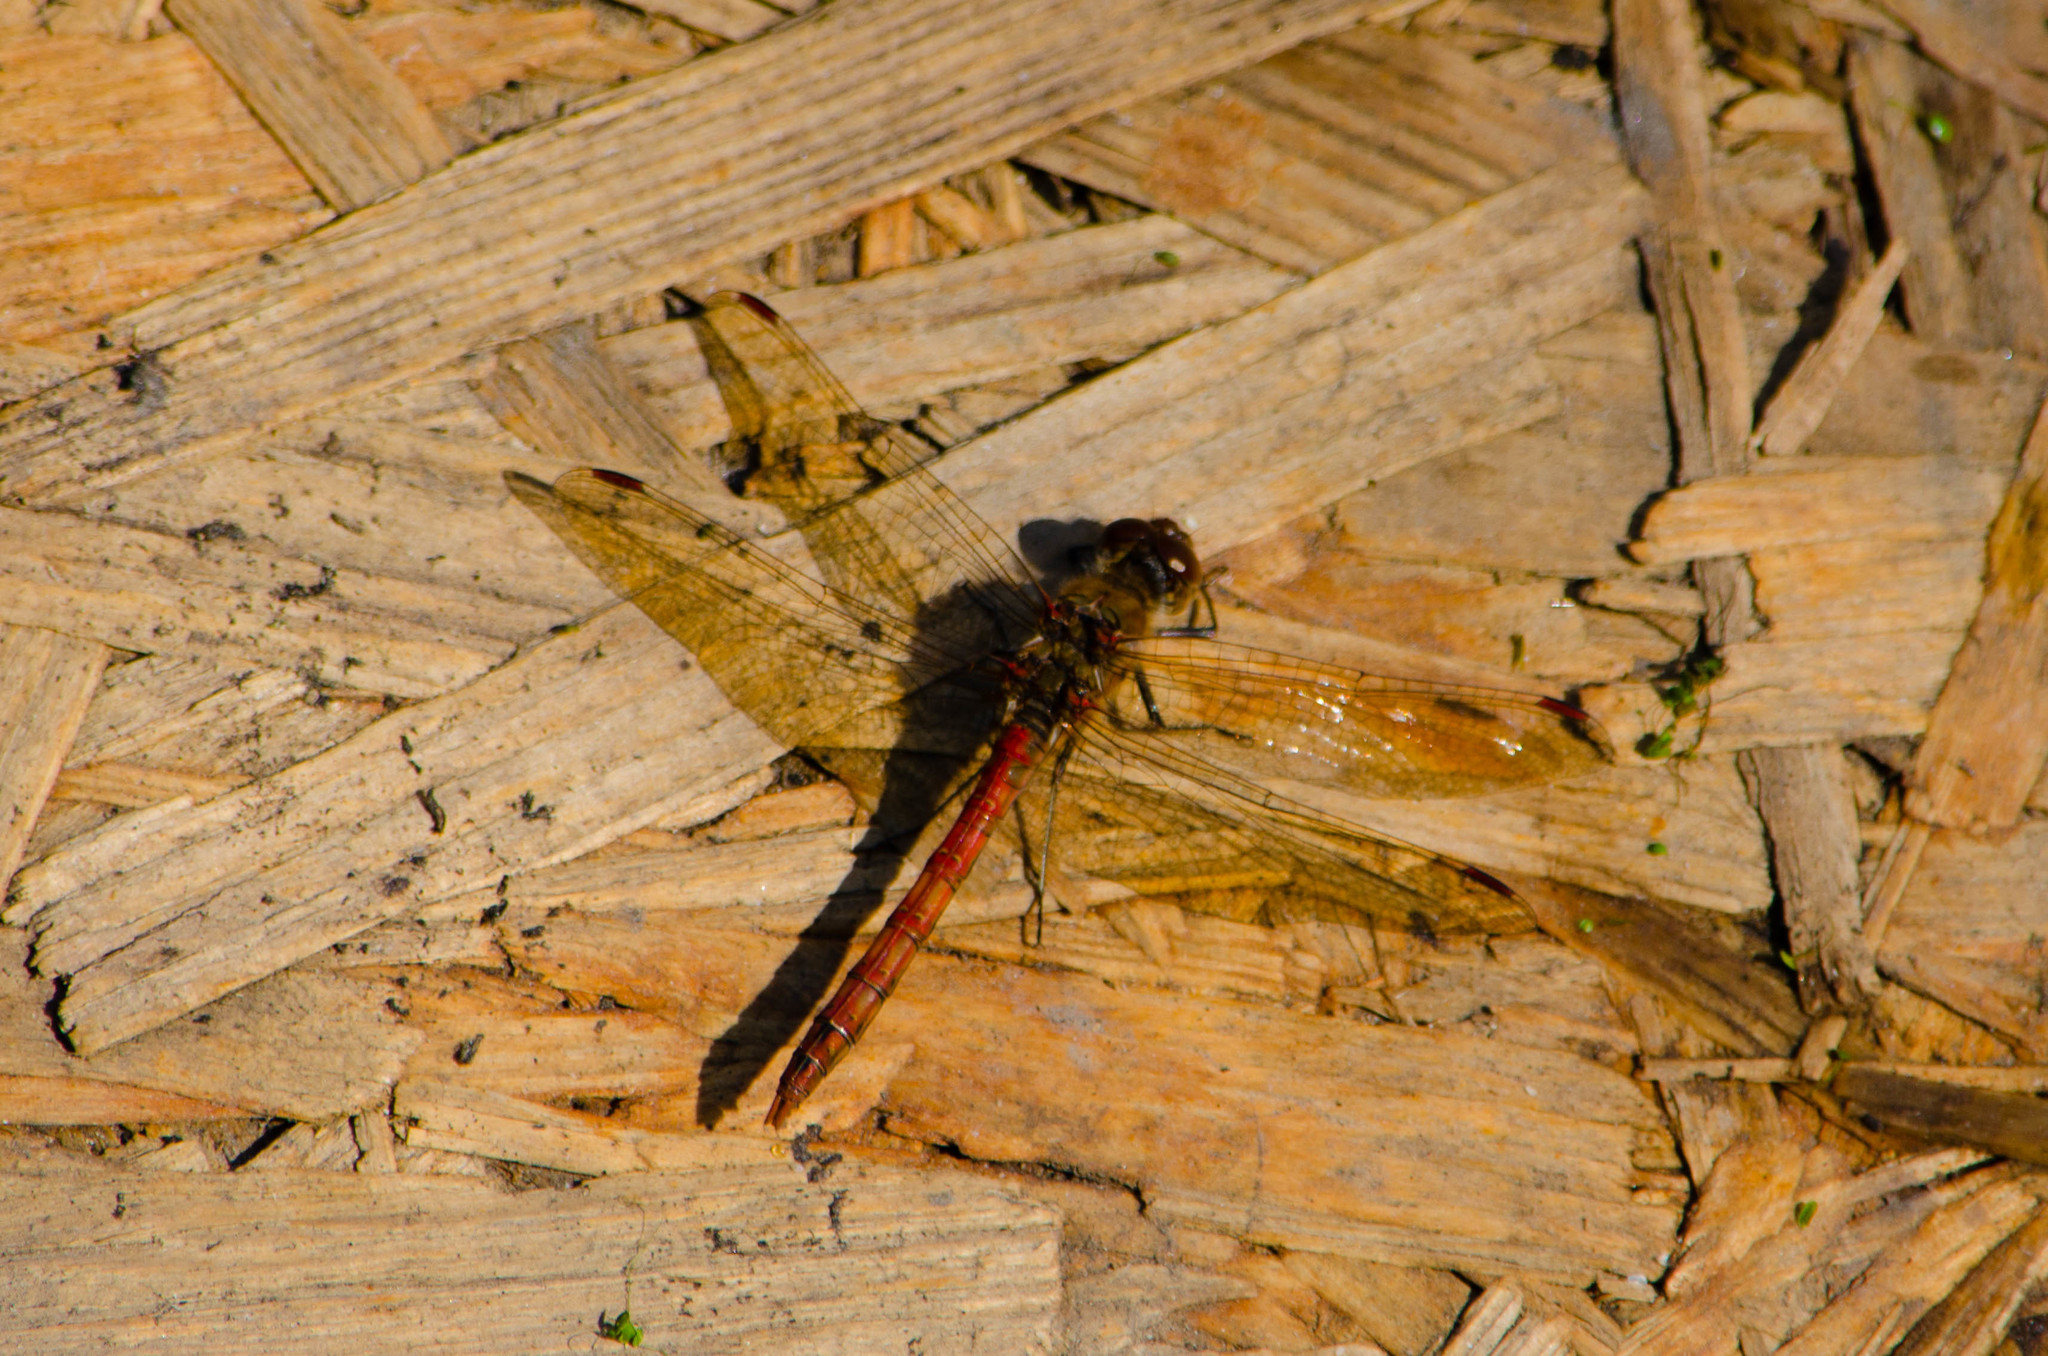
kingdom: Animalia
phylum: Arthropoda
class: Insecta
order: Odonata
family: Libellulidae
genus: Sympetrum
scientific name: Sympetrum striolatum
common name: Common darter
